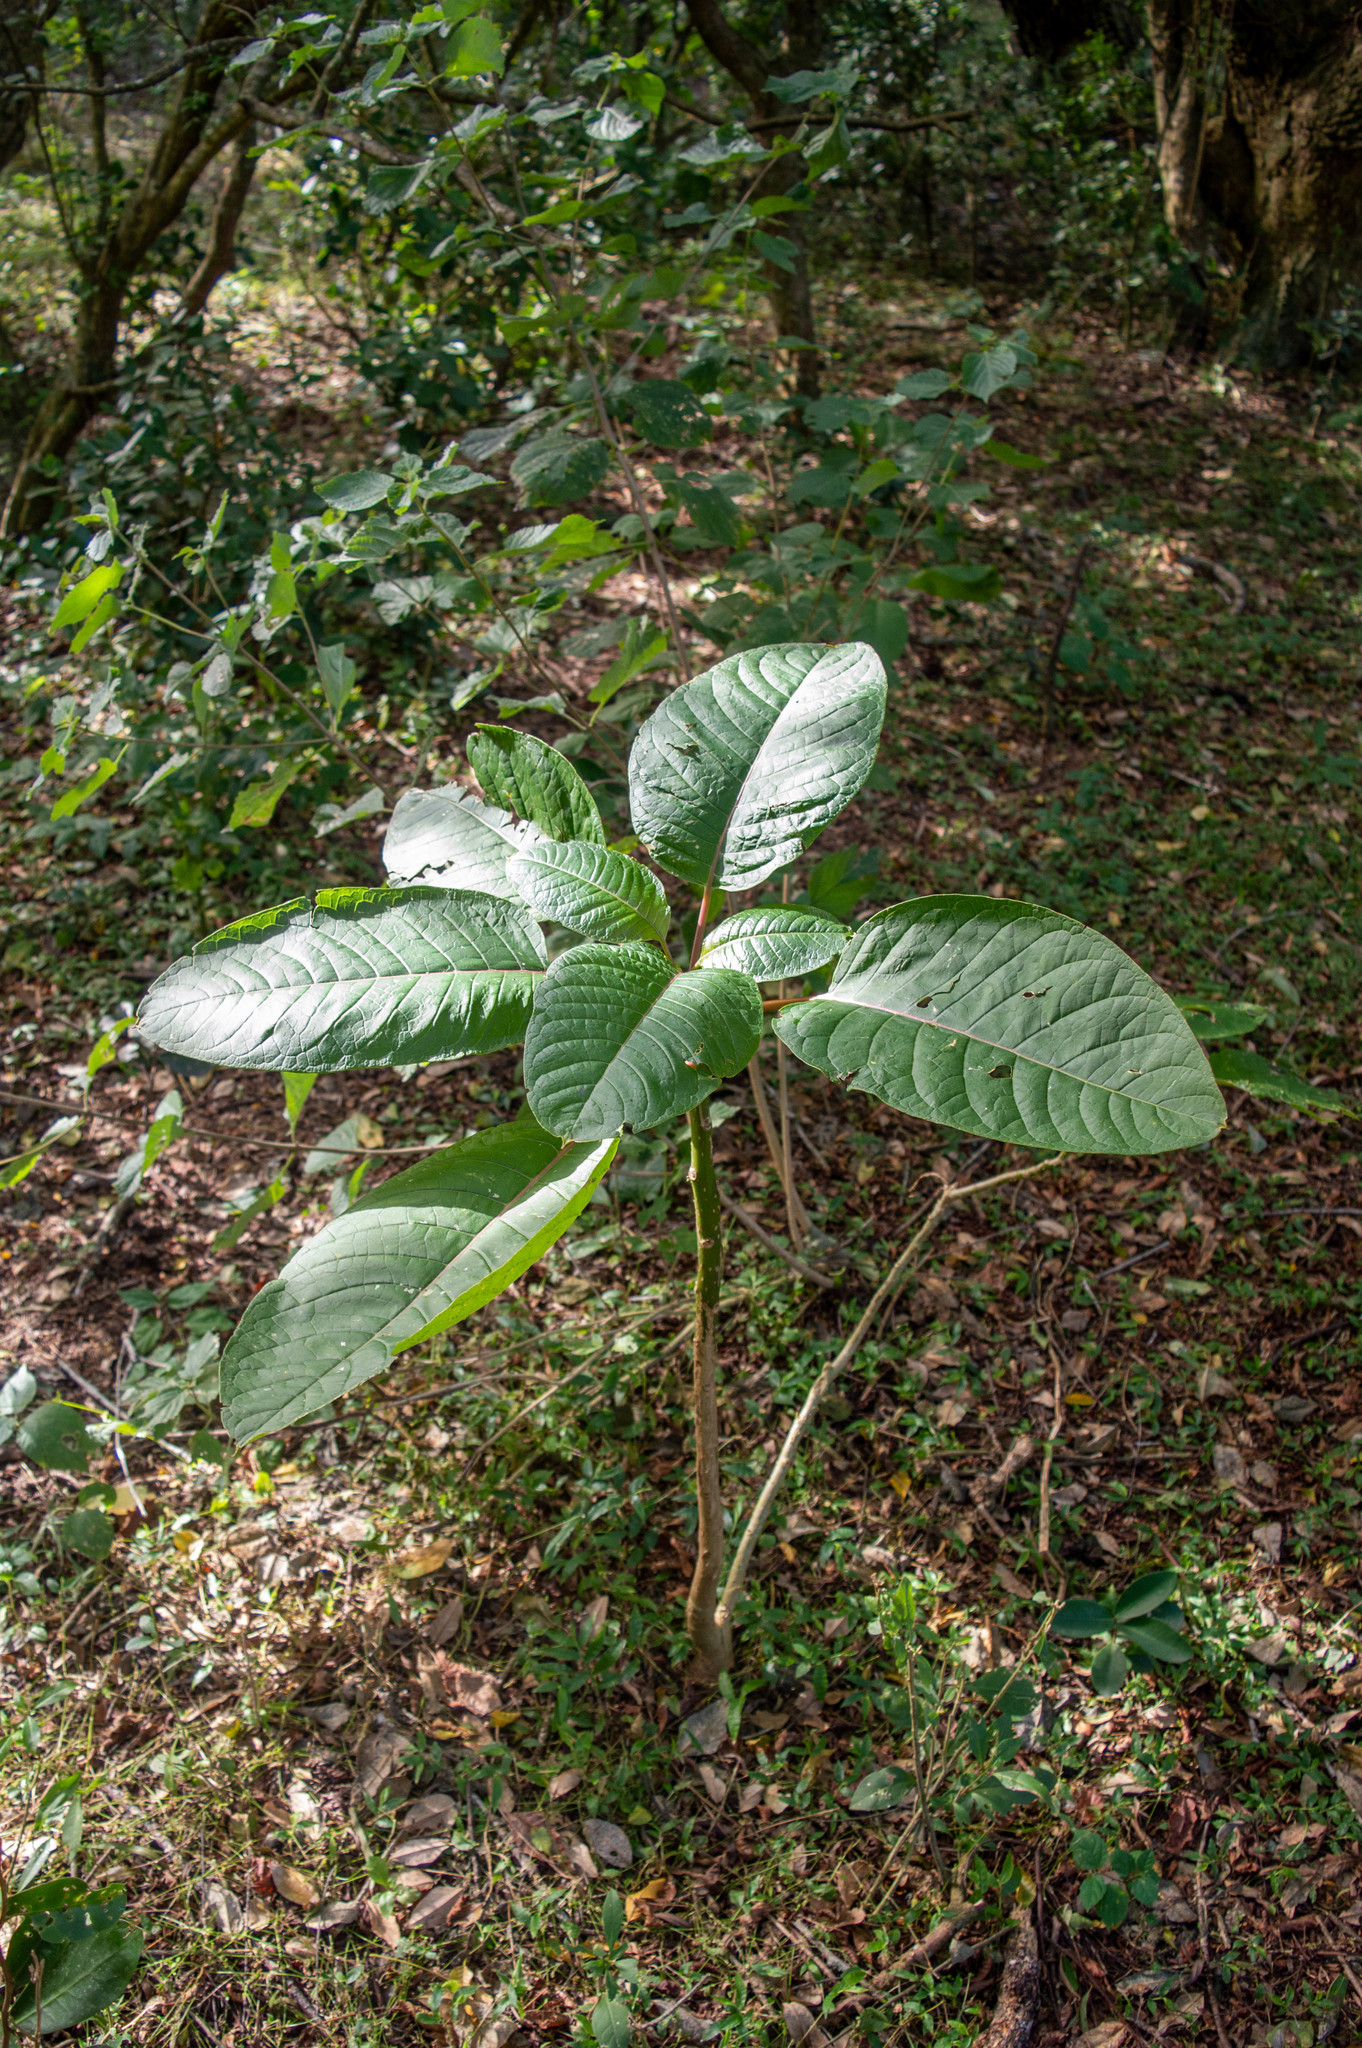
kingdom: Plantae
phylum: Tracheophyta
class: Magnoliopsida
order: Caryophyllales
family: Phytolaccaceae
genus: Phytolacca
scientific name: Phytolacca dioica
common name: Pokeweed
